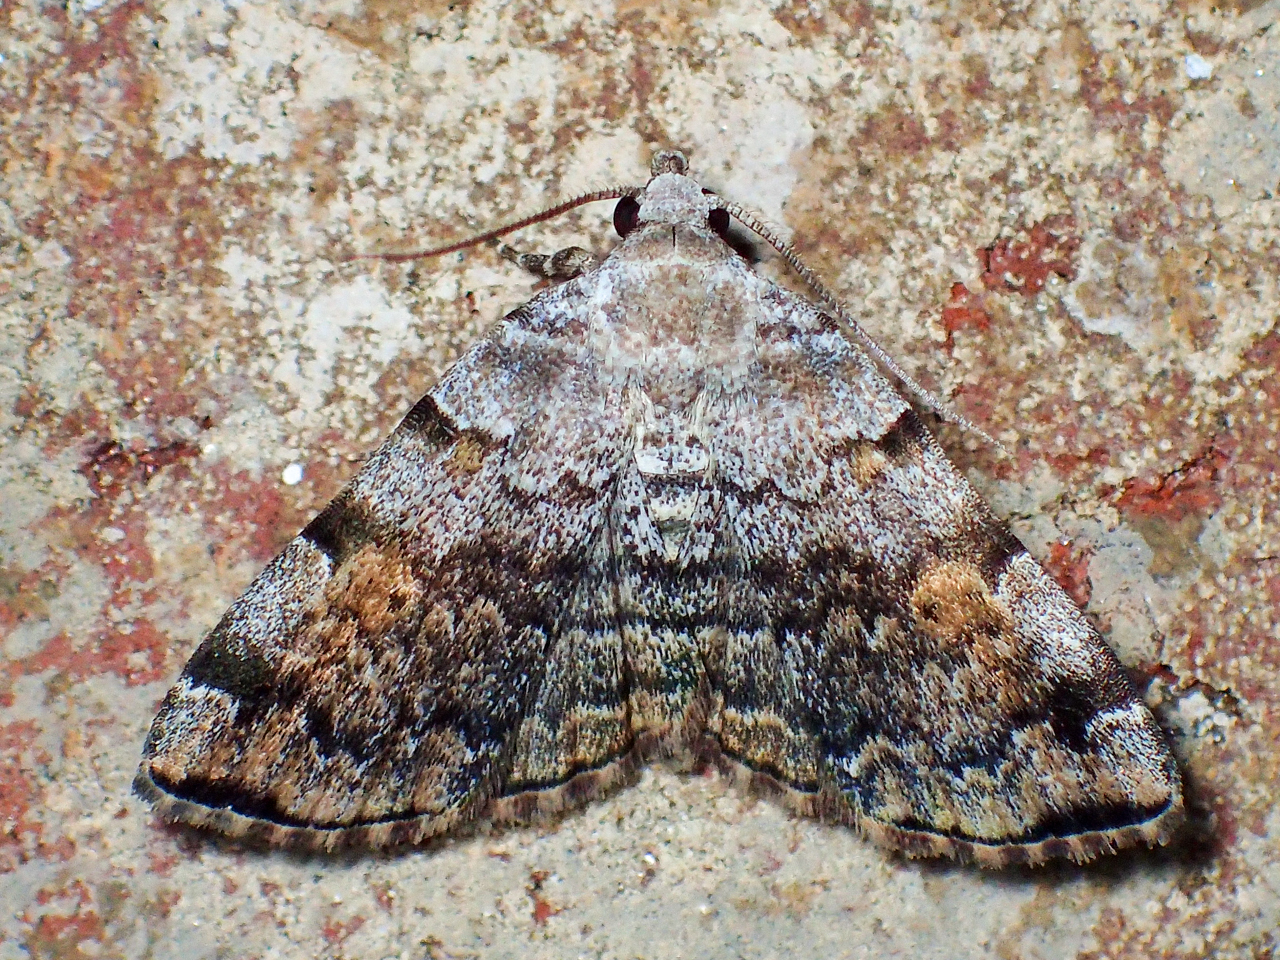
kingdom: Animalia
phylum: Arthropoda
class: Insecta
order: Lepidoptera
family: Erebidae
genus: Idia
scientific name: Idia americalis
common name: American idia moth
